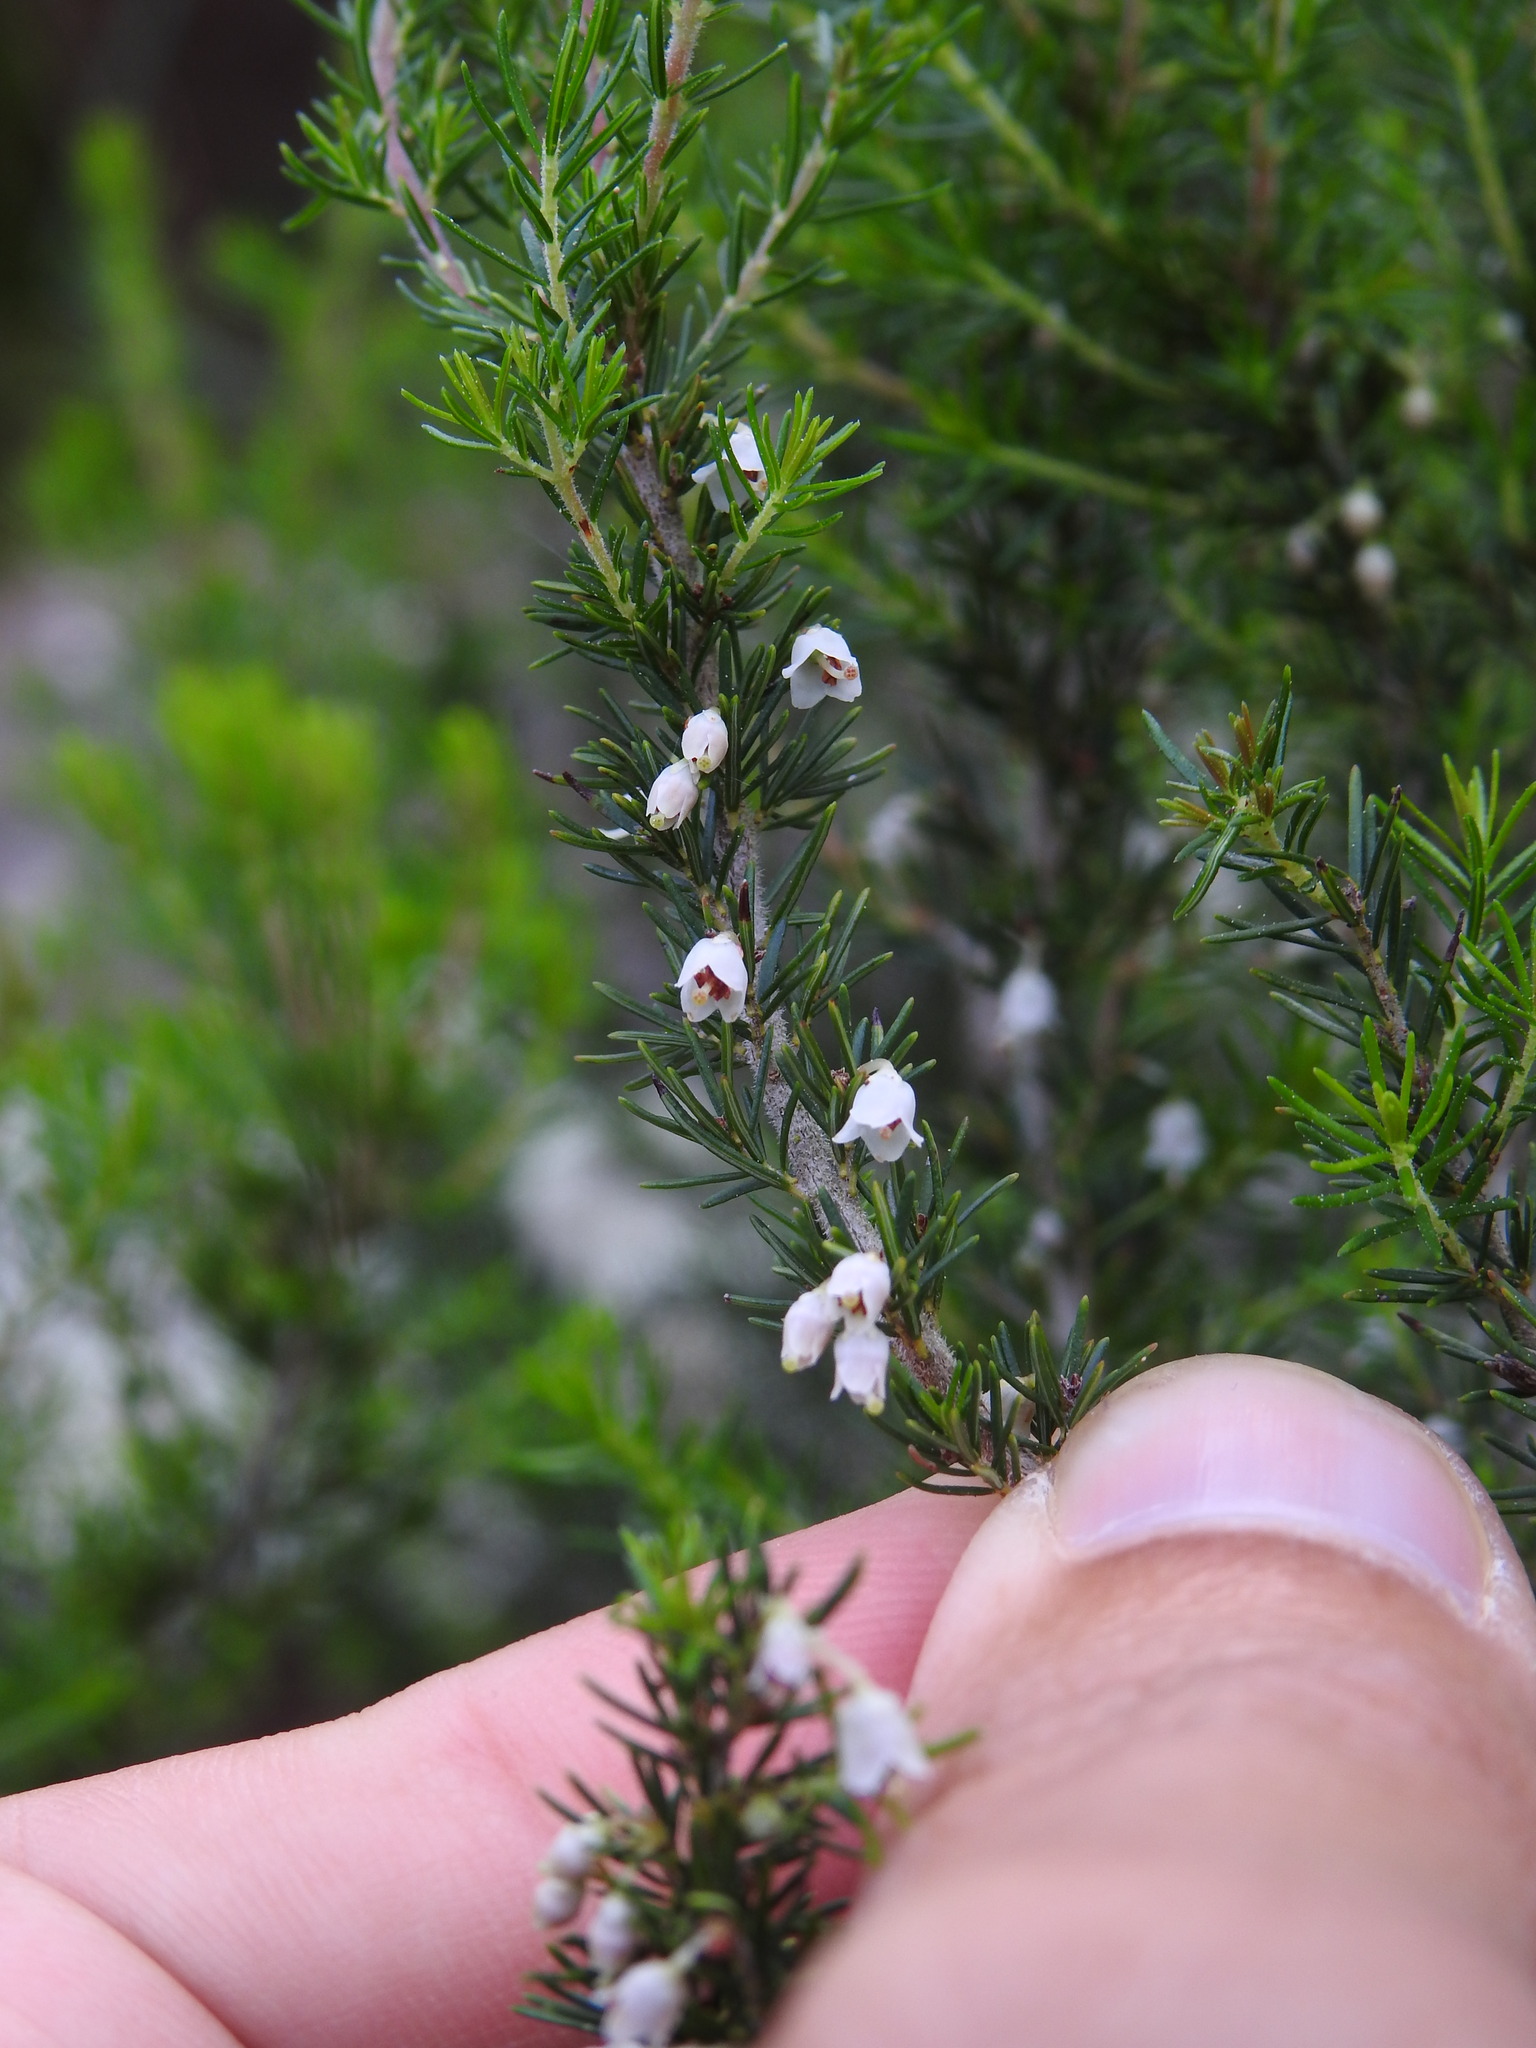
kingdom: Plantae
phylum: Tracheophyta
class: Magnoliopsida
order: Ericales
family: Ericaceae
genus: Erica
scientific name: Erica arborea
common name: Tree heath
